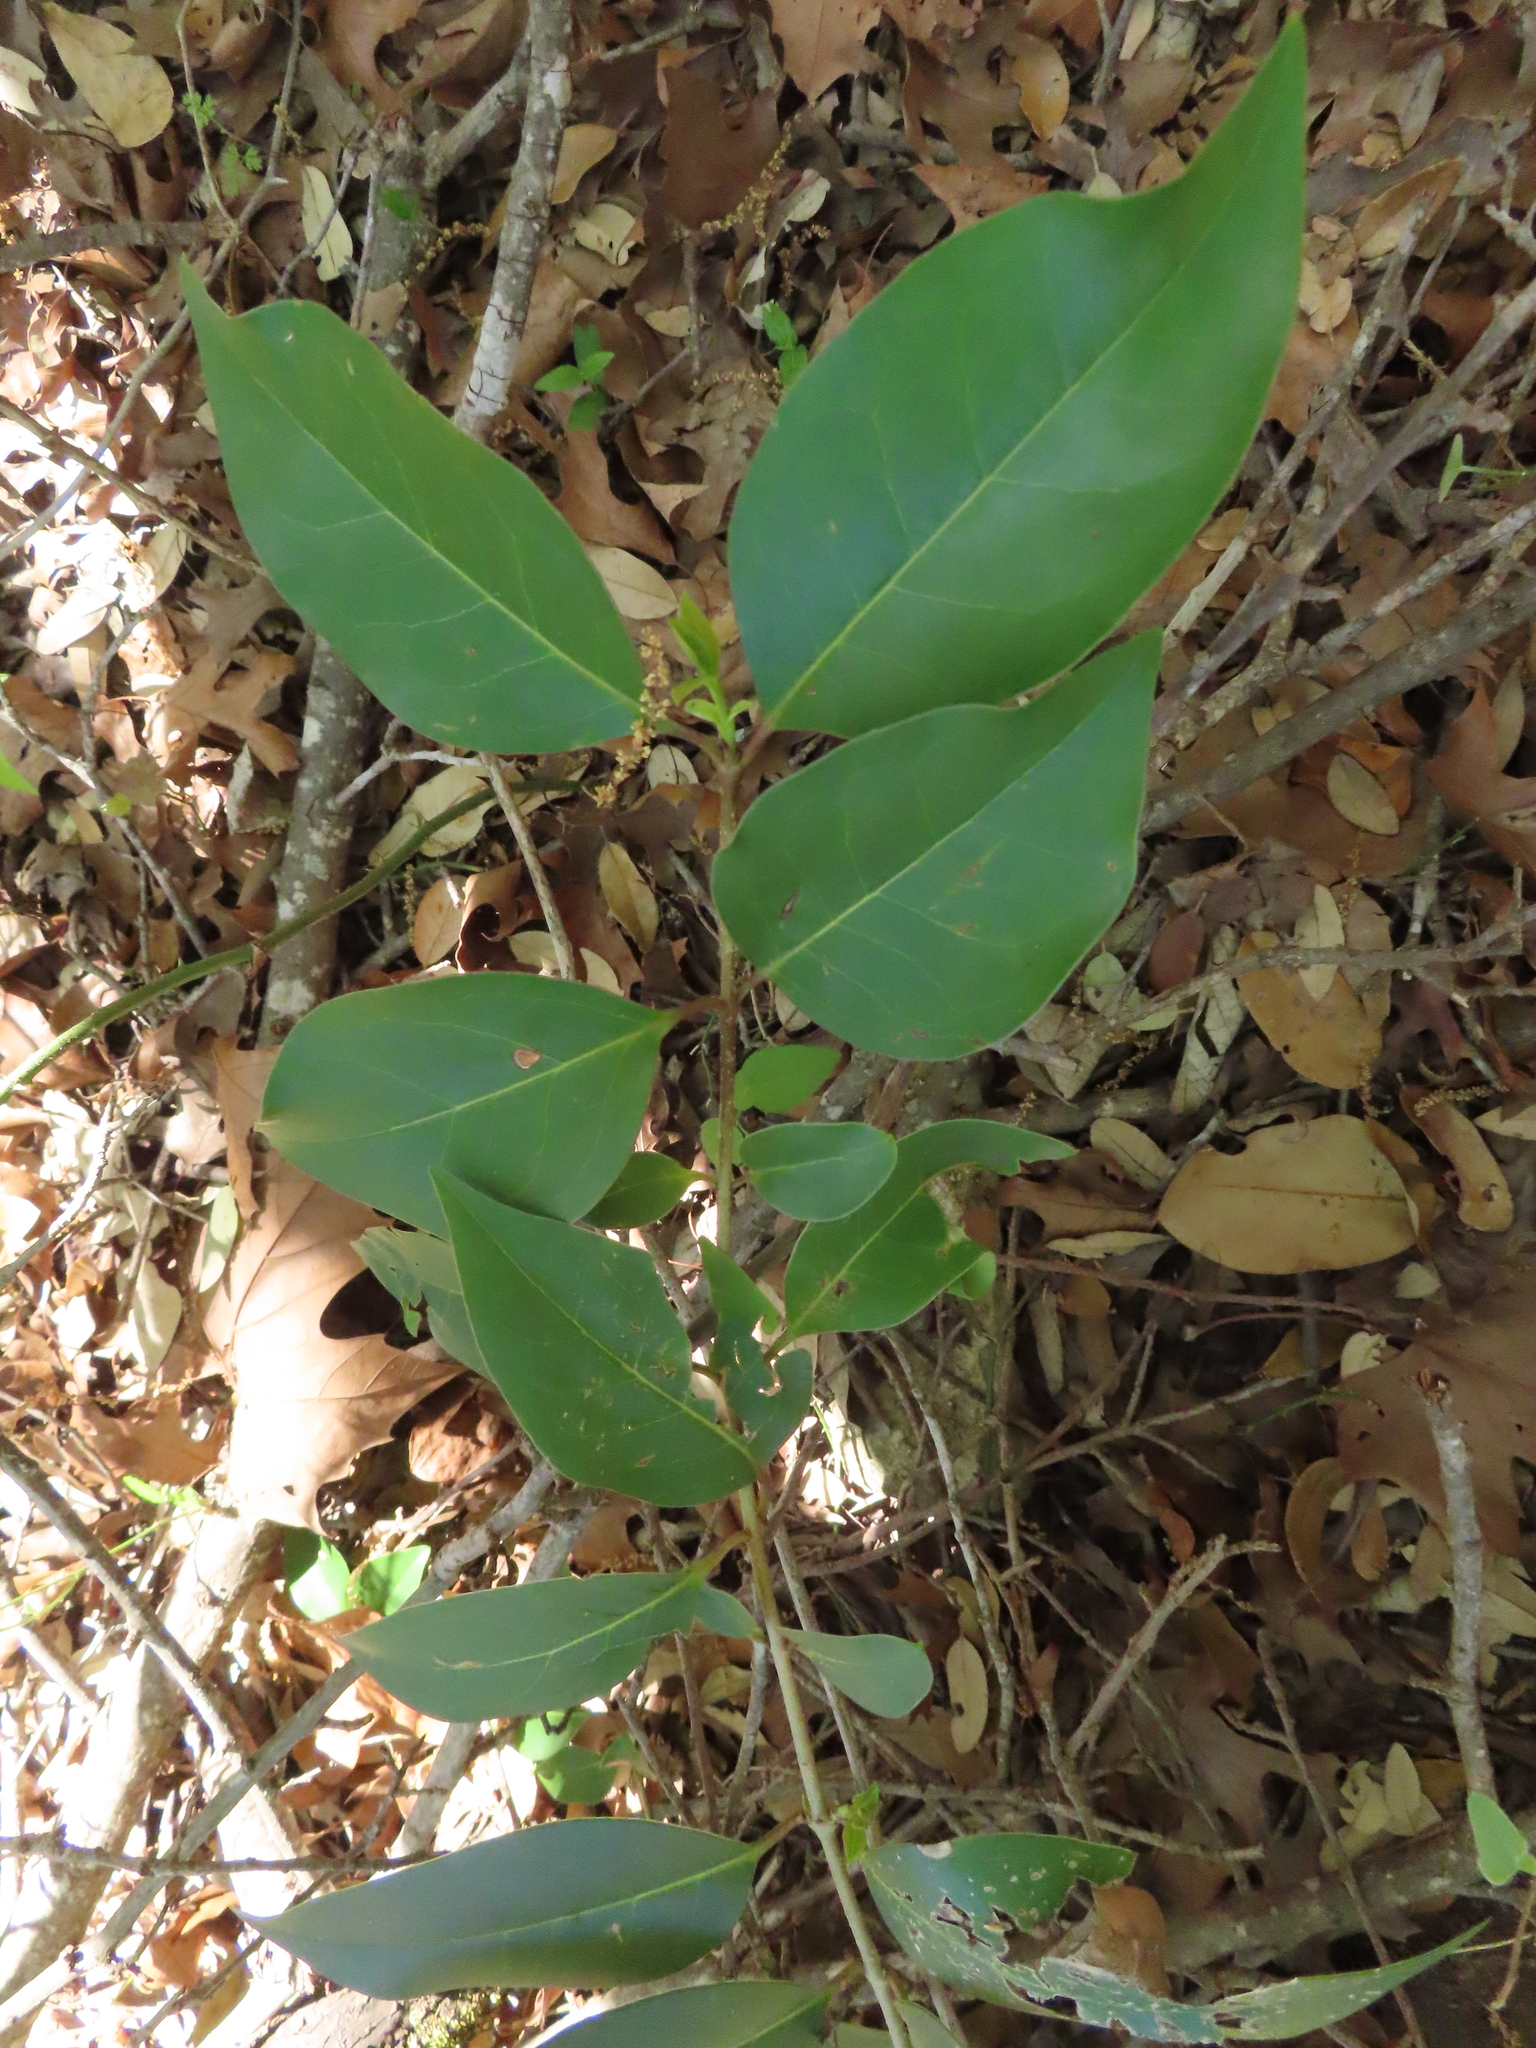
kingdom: Plantae
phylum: Tracheophyta
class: Magnoliopsida
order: Lamiales
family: Oleaceae
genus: Ligustrum
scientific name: Ligustrum lucidum
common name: Glossy privet
